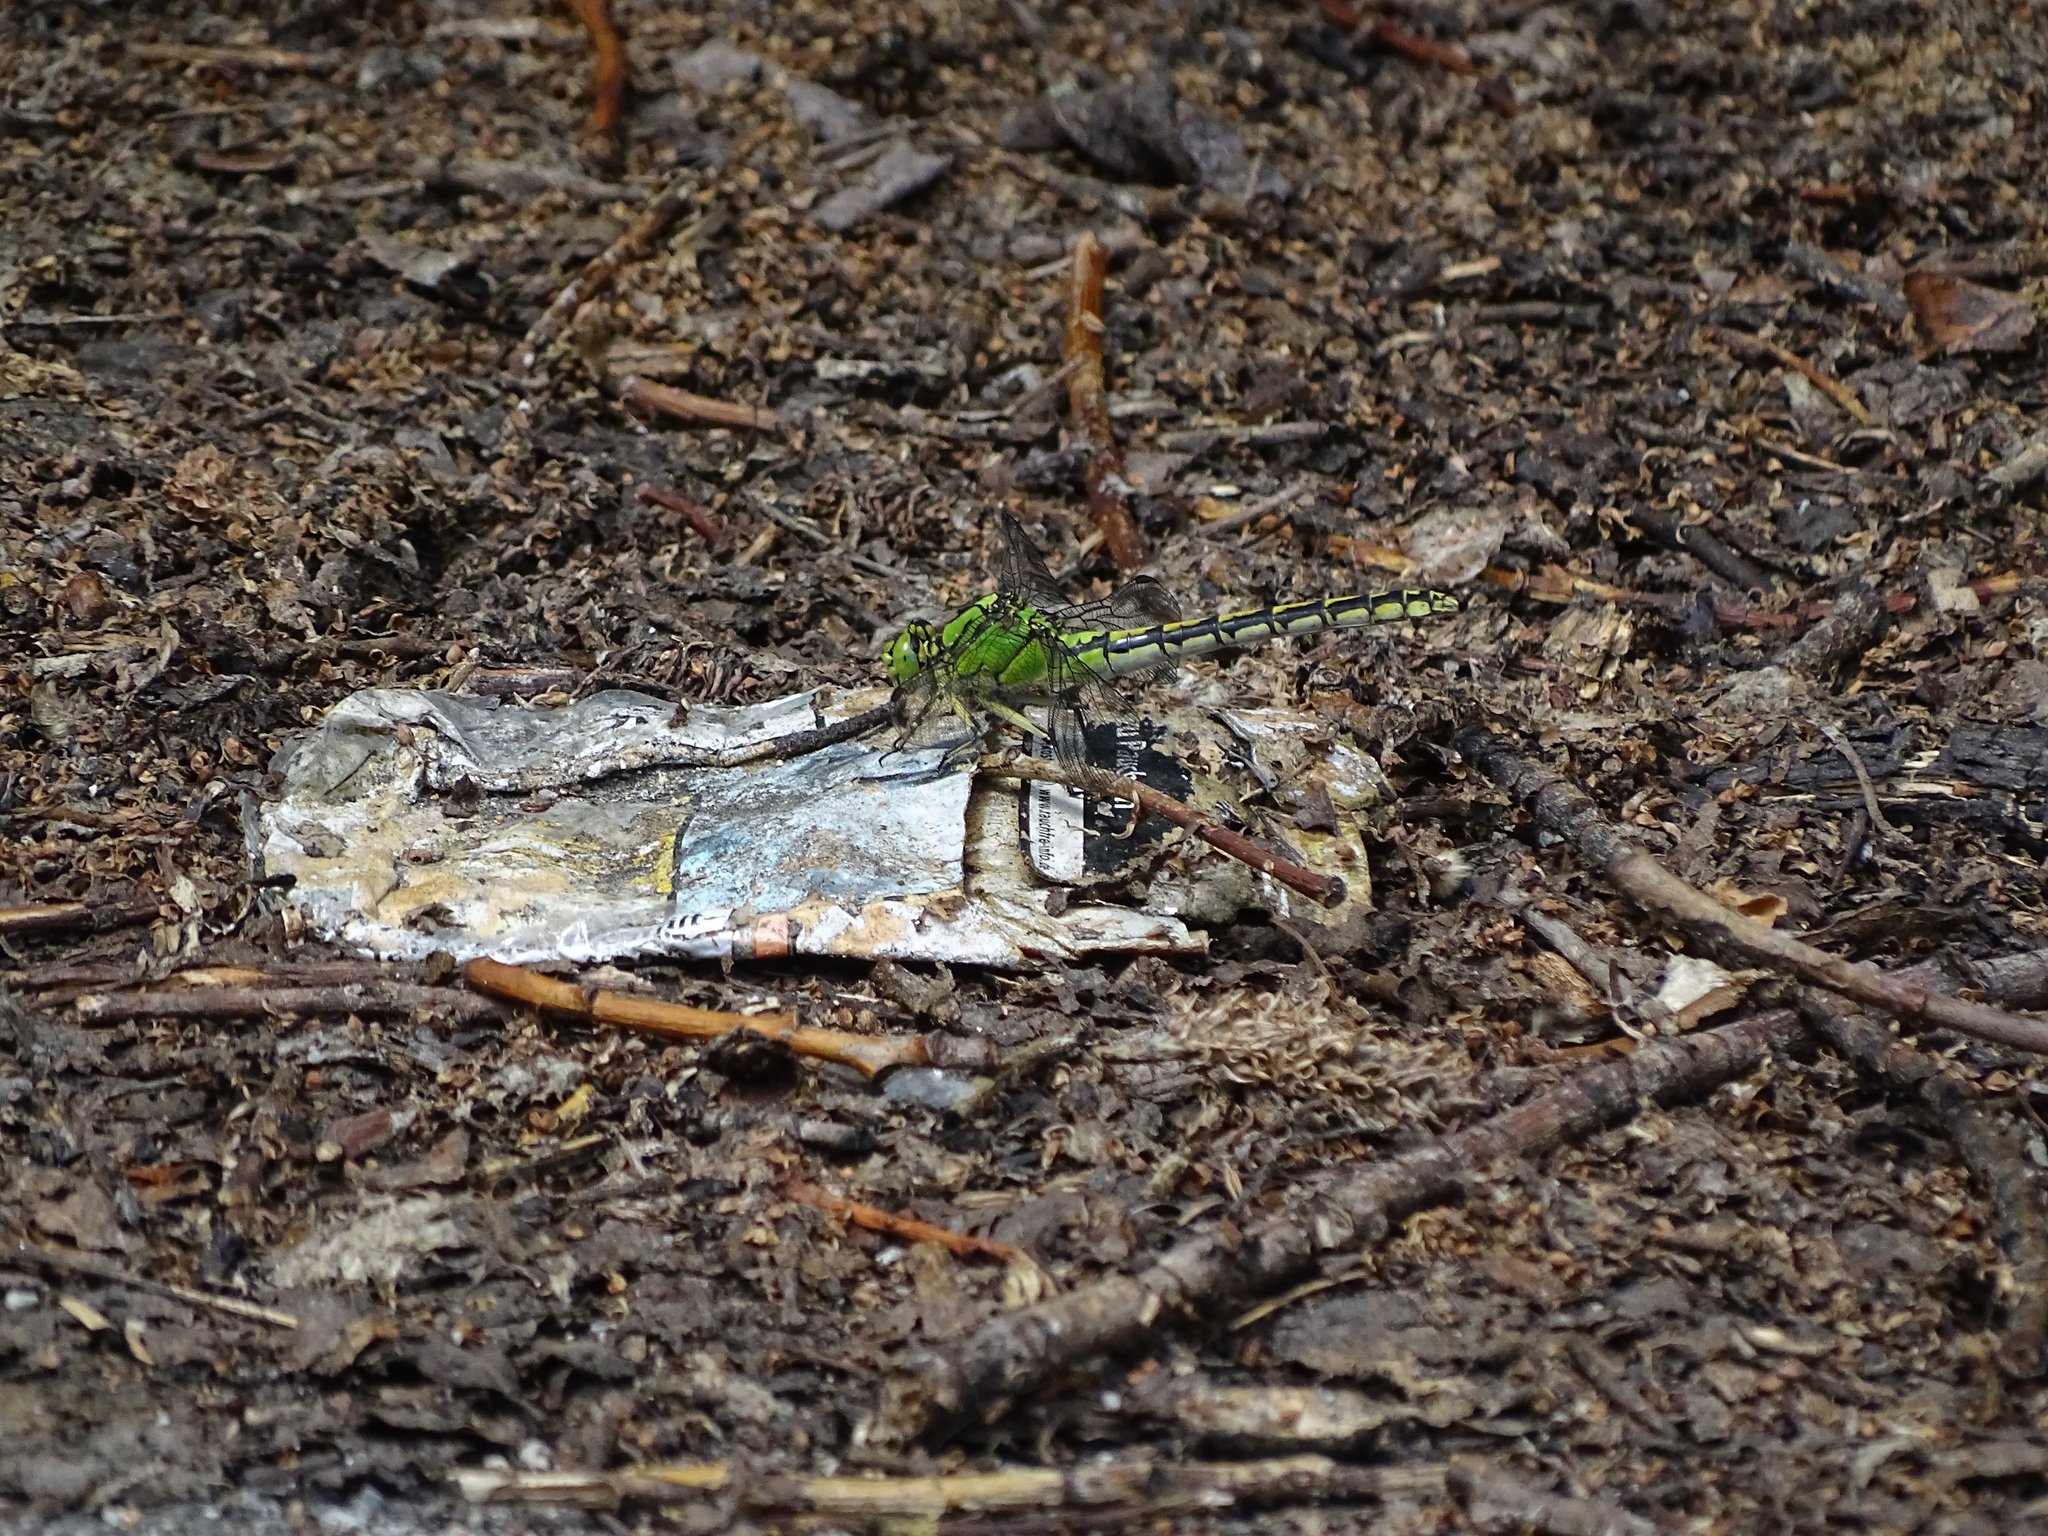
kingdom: Animalia
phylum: Arthropoda
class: Insecta
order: Odonata
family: Gomphidae
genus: Ophiogomphus
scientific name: Ophiogomphus cecilia
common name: Green snaketail
